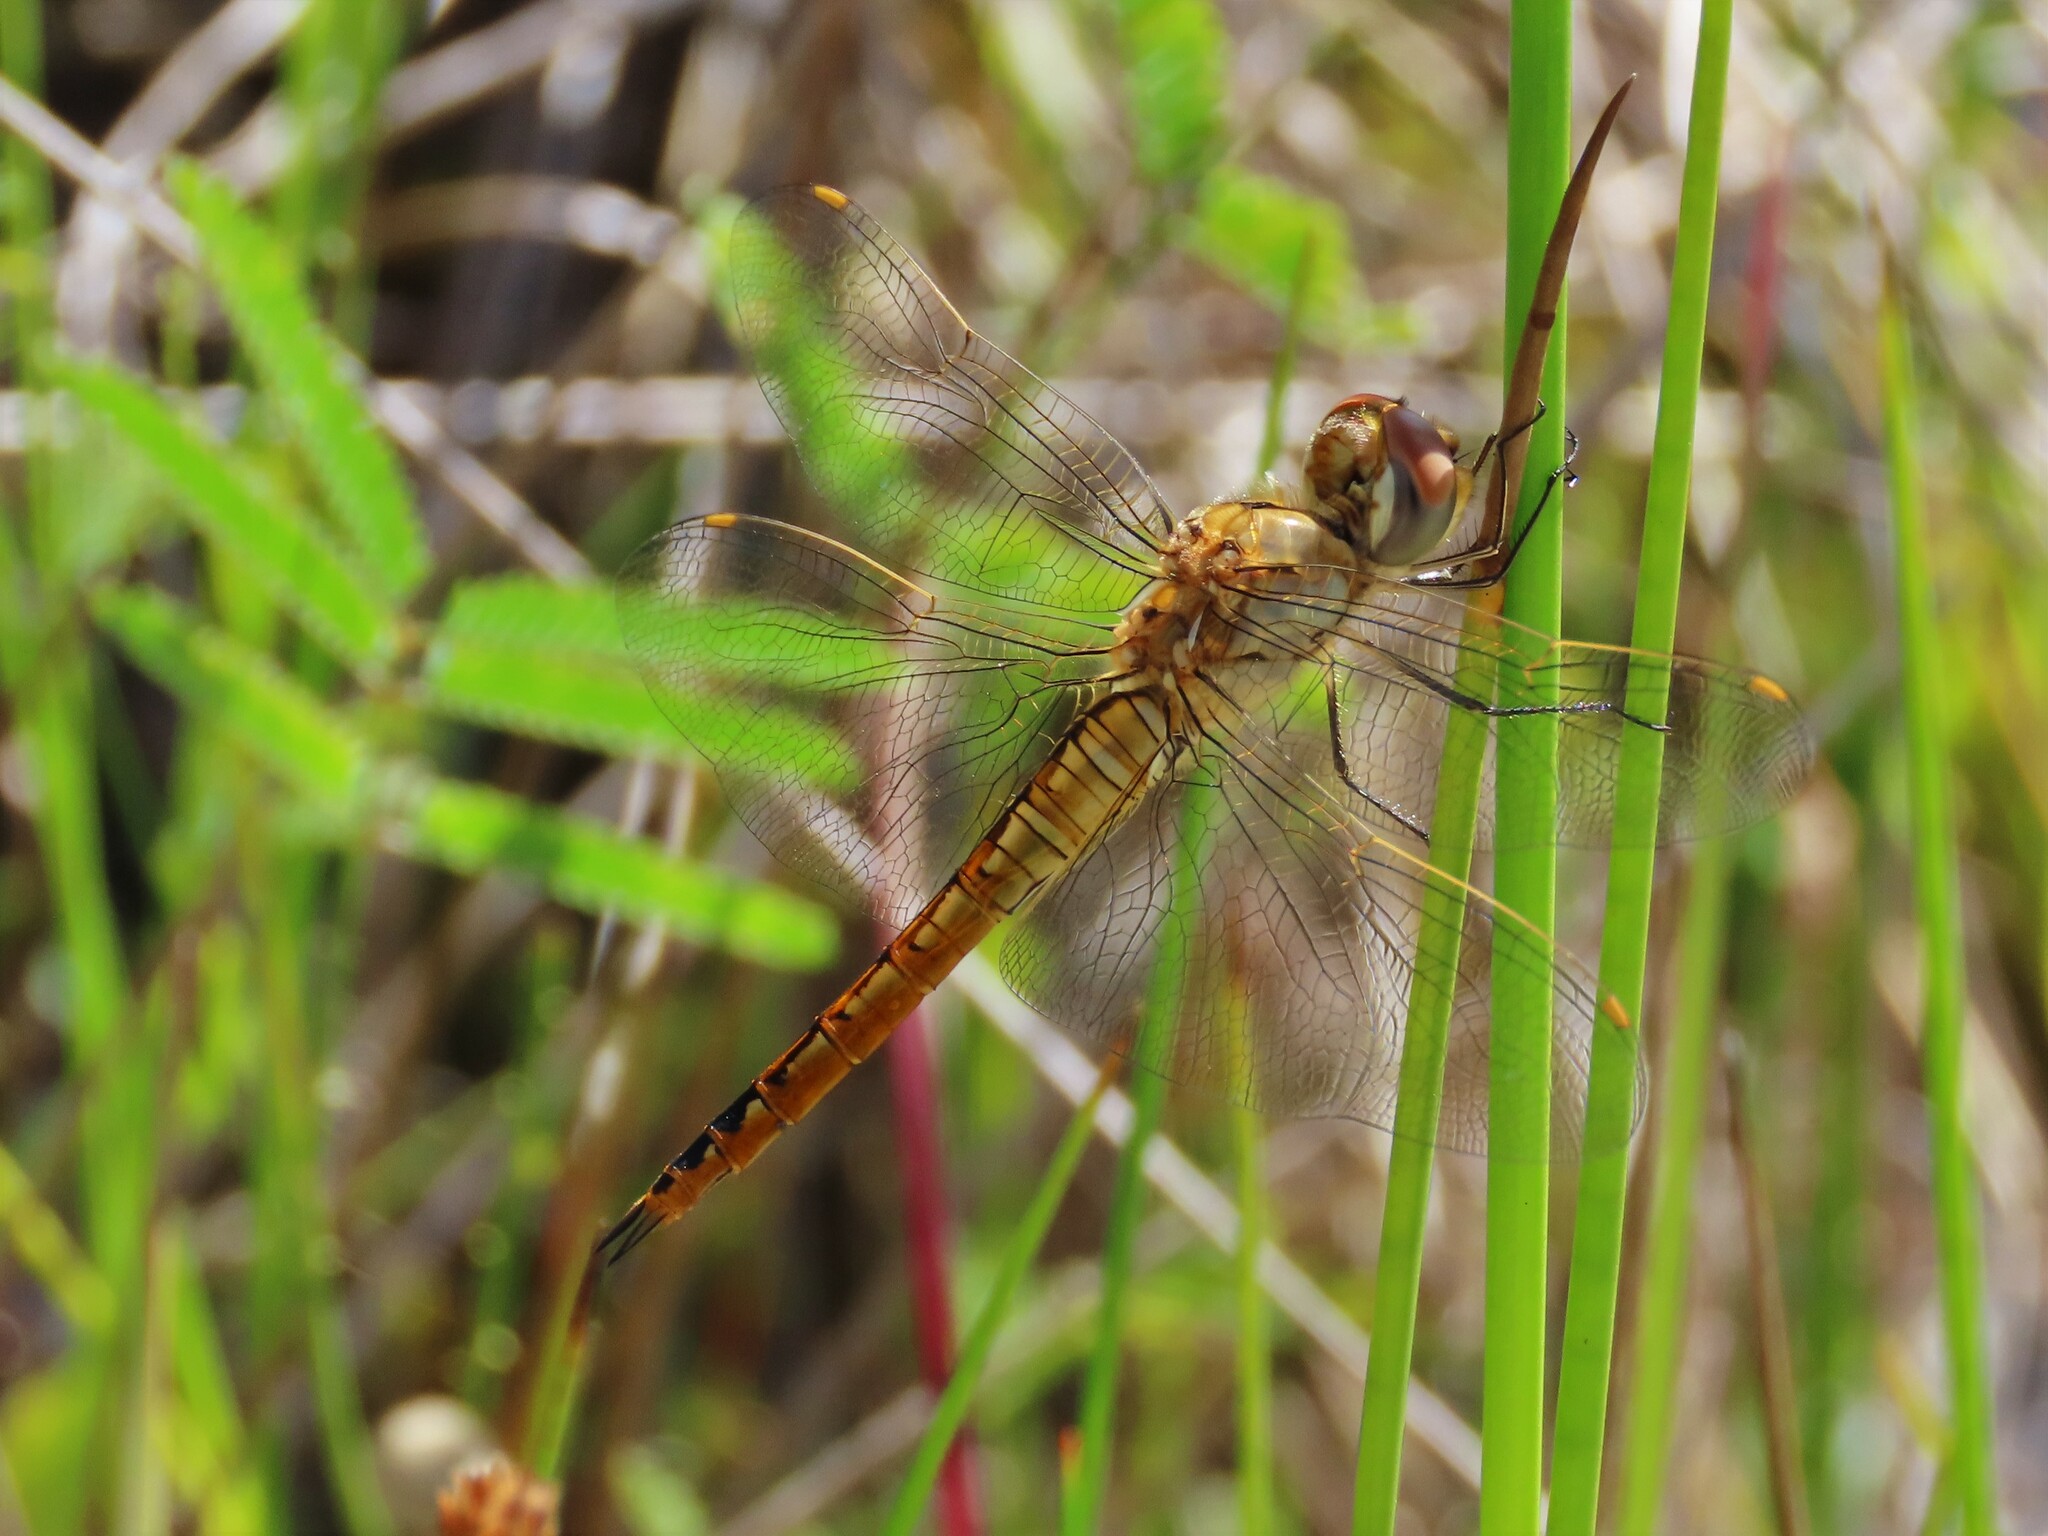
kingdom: Animalia
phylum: Arthropoda
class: Insecta
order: Odonata
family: Libellulidae
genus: Pantala
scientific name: Pantala flavescens
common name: Wandering glider
